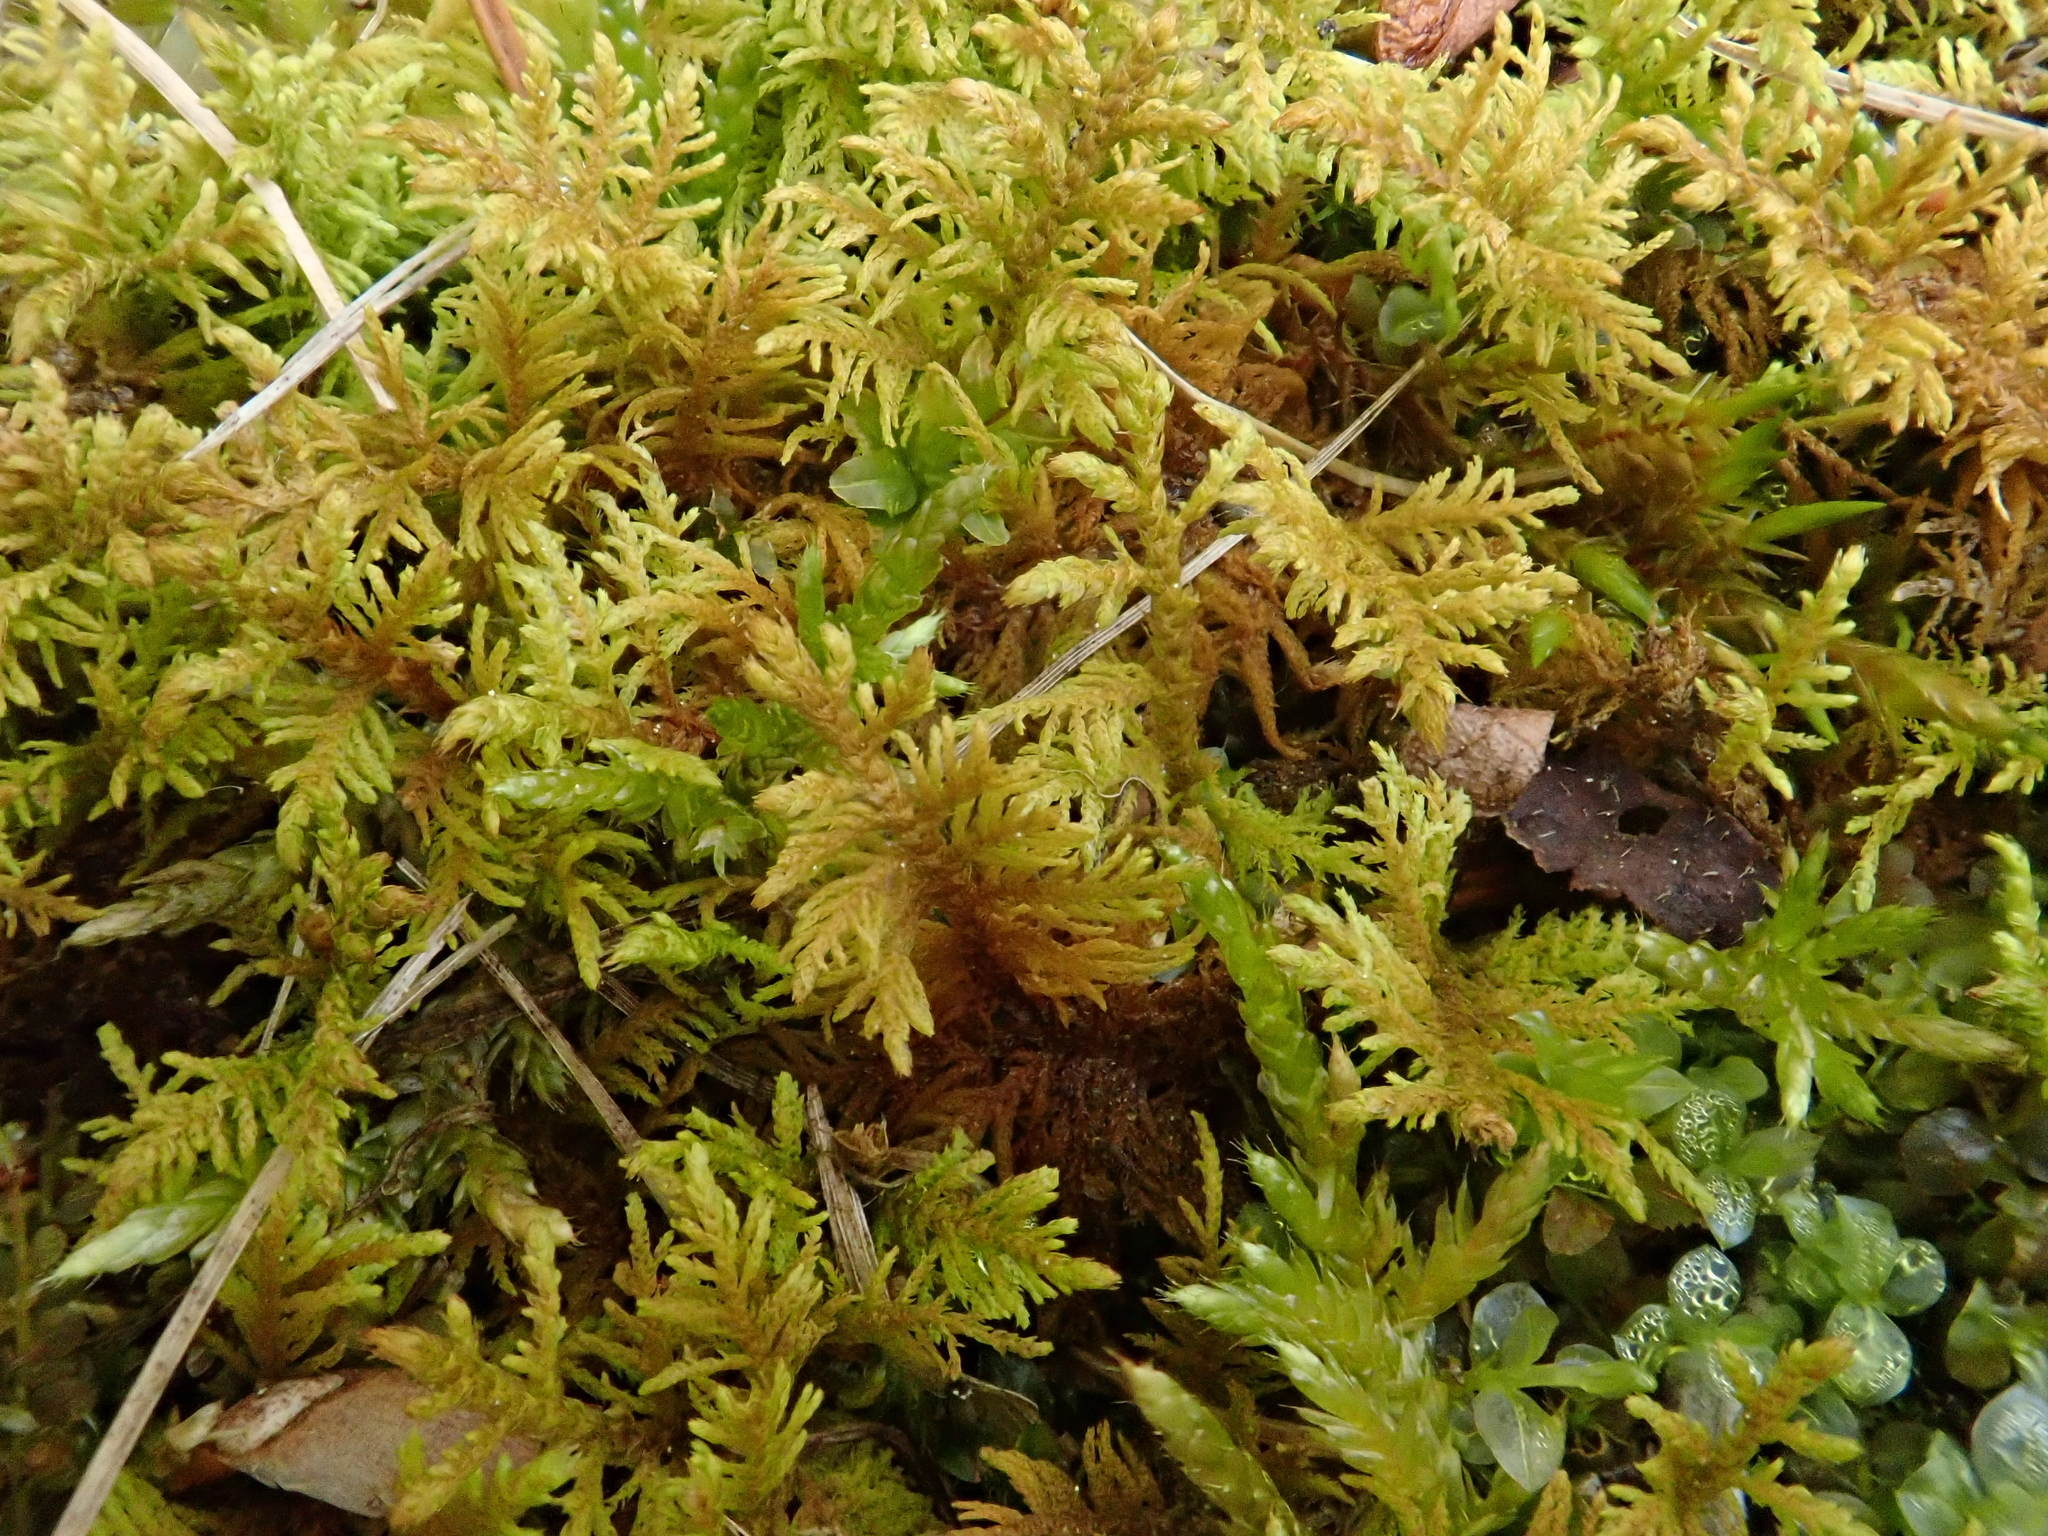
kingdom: Plantae
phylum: Bryophyta
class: Bryopsida
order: Hypnales
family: Thuidiaceae
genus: Thuidium
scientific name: Thuidium assimile
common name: Philibert's fern moss
